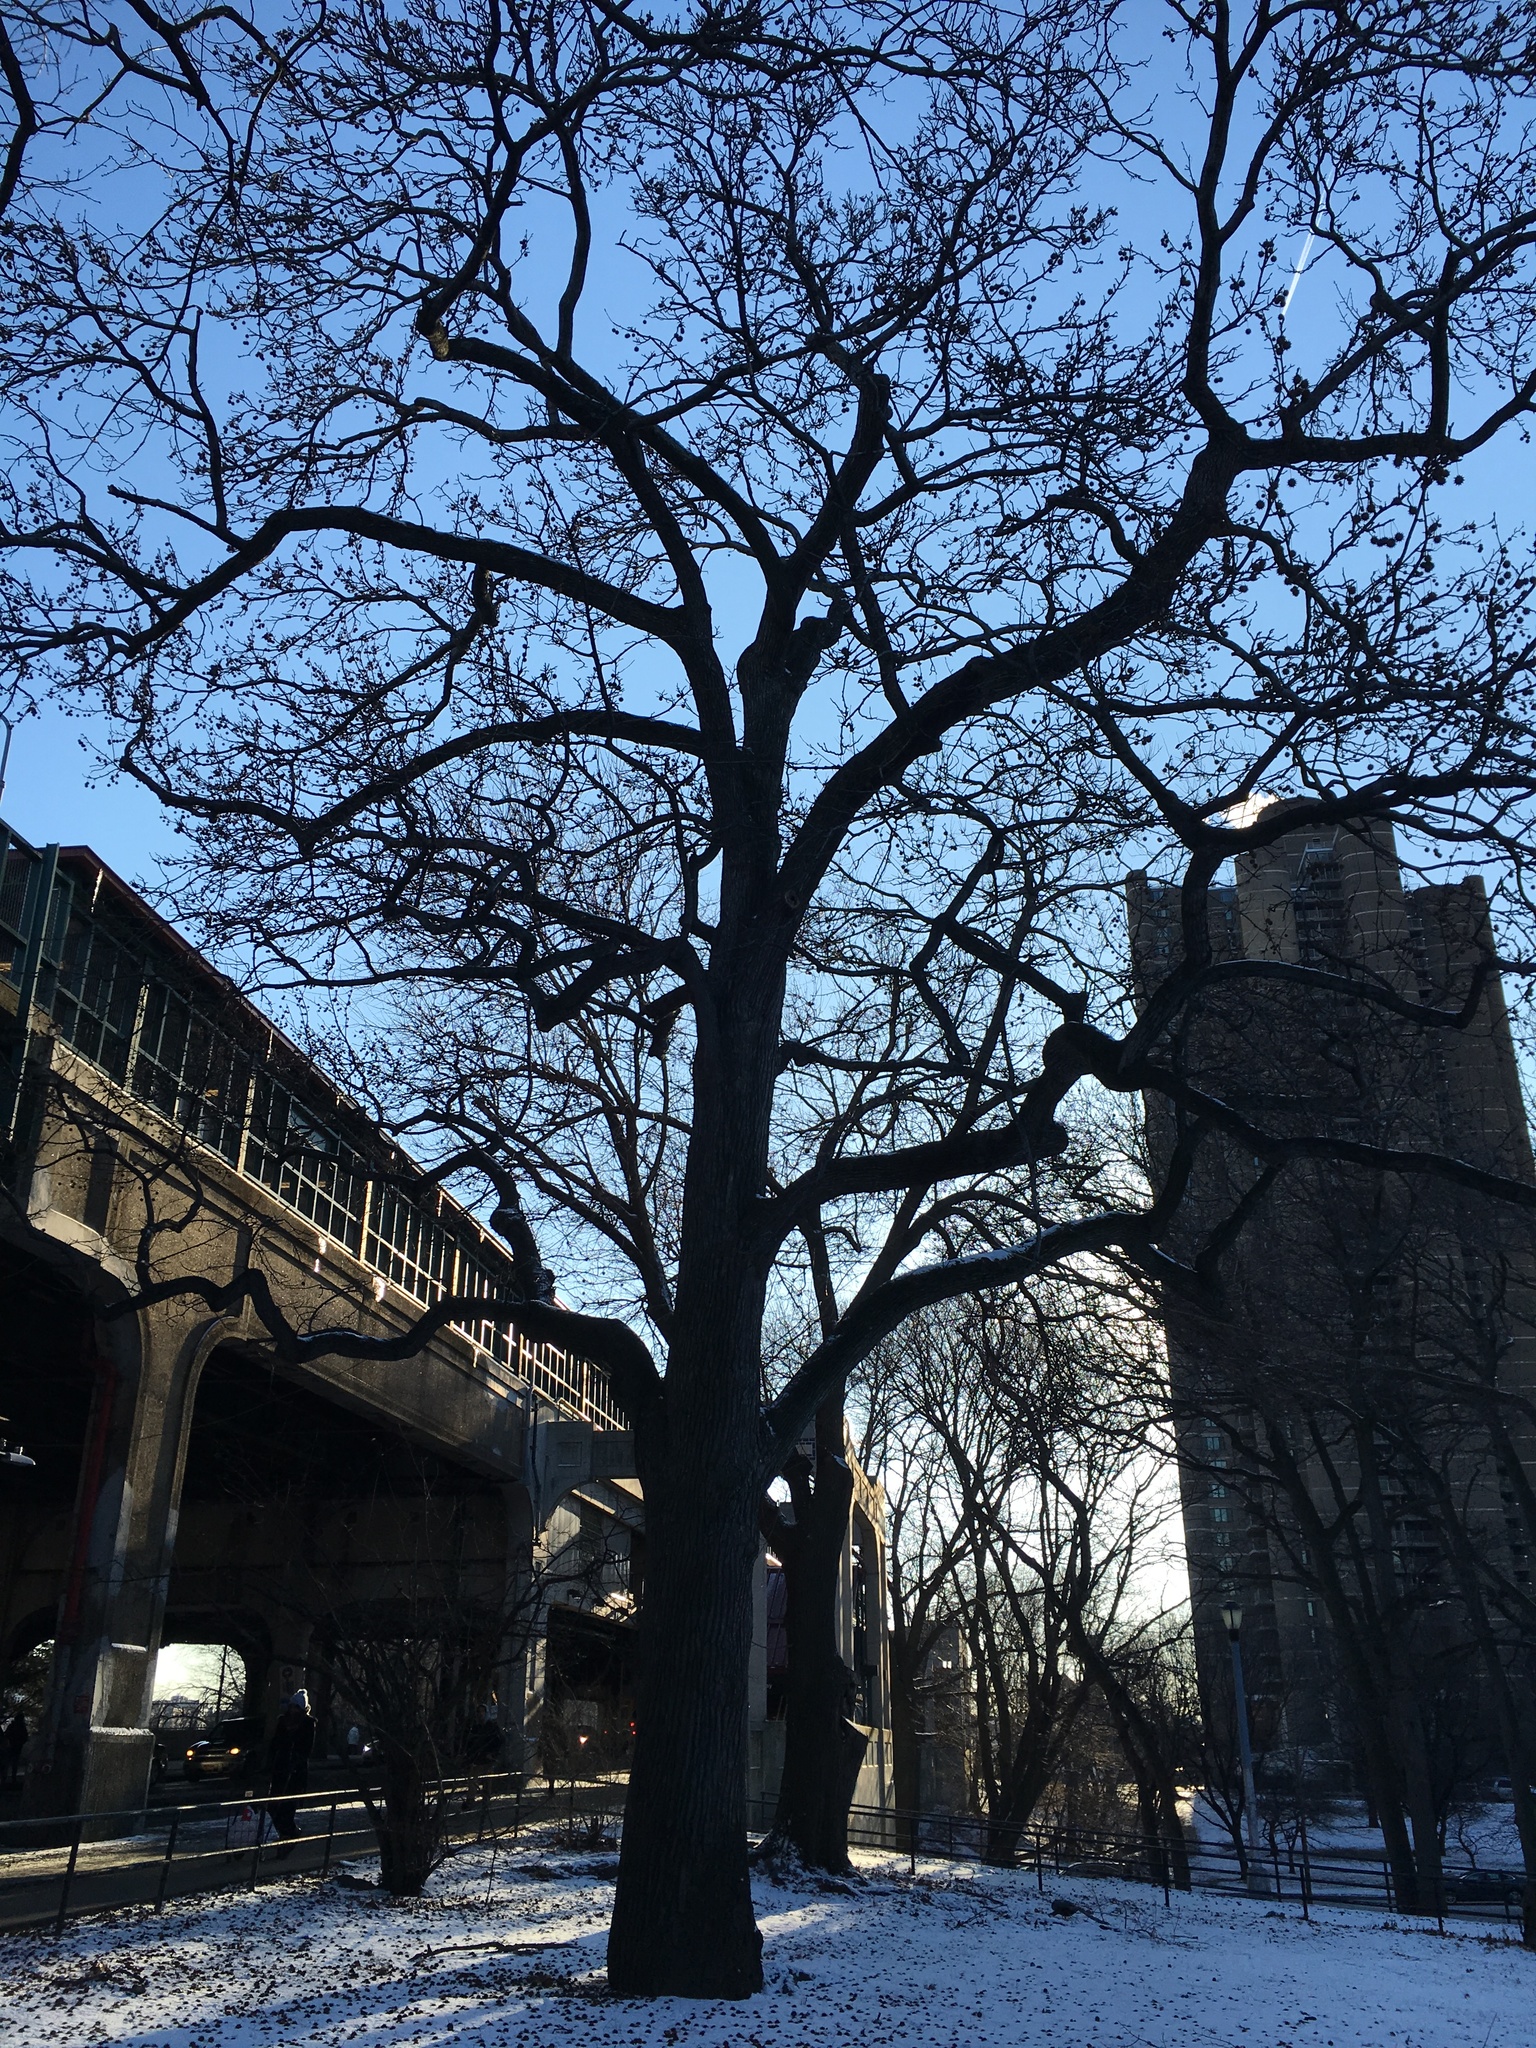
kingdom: Plantae
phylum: Tracheophyta
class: Magnoliopsida
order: Saxifragales
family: Altingiaceae
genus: Liquidambar
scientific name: Liquidambar styraciflua
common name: Sweet gum
